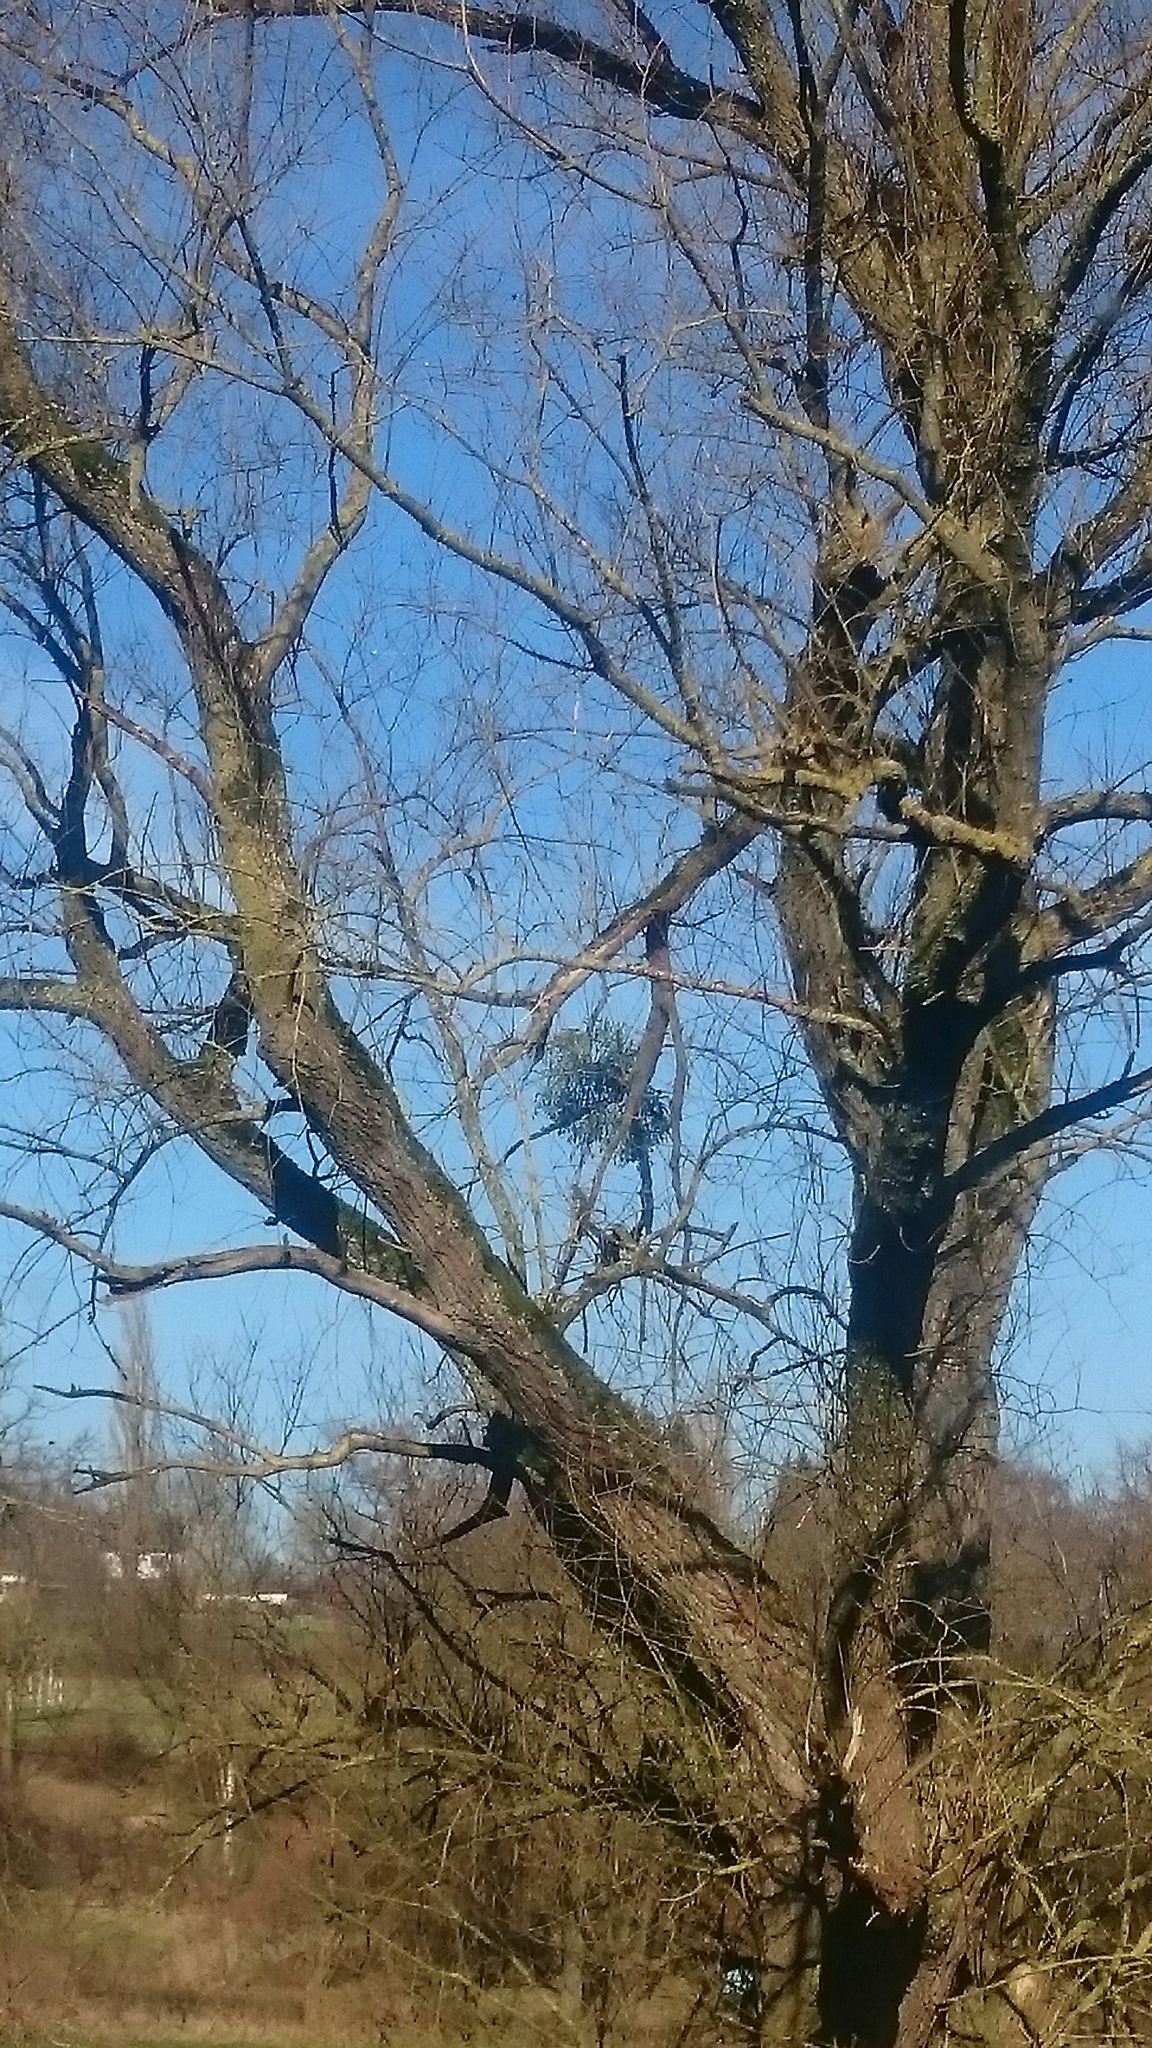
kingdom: Plantae
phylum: Tracheophyta
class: Magnoliopsida
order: Santalales
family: Viscaceae
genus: Viscum
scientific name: Viscum album
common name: Mistletoe
